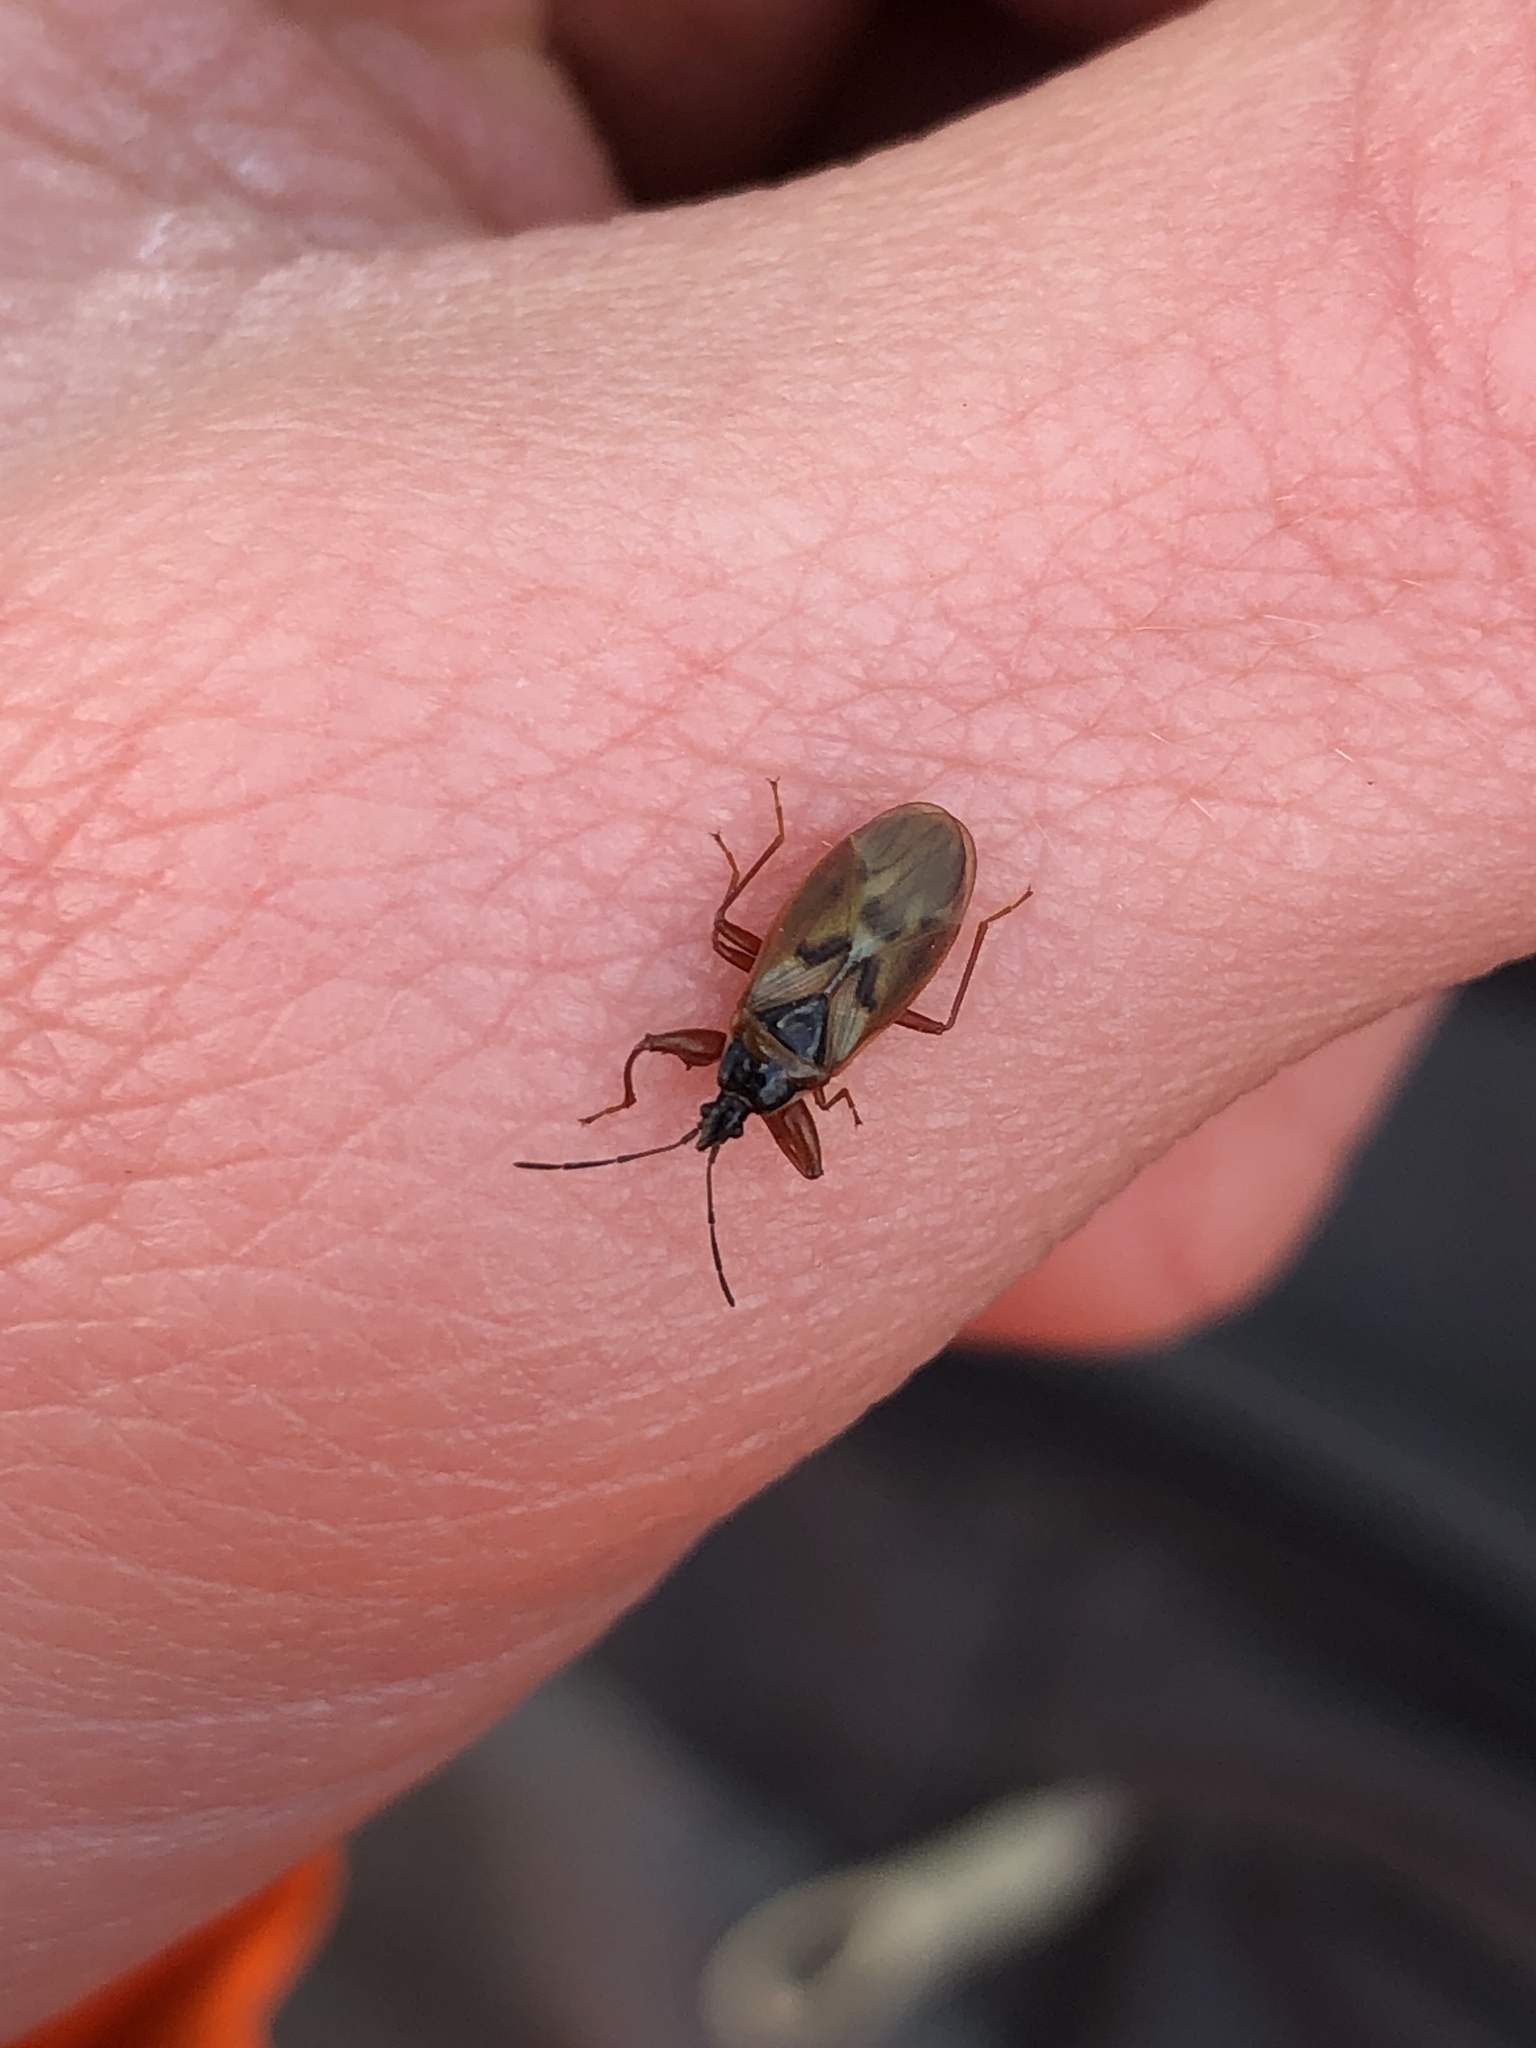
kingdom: Animalia
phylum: Arthropoda
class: Insecta
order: Hemiptera
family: Rhyparochromidae
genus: Gastrodes
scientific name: Gastrodes abietum
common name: Spruce cone bug
